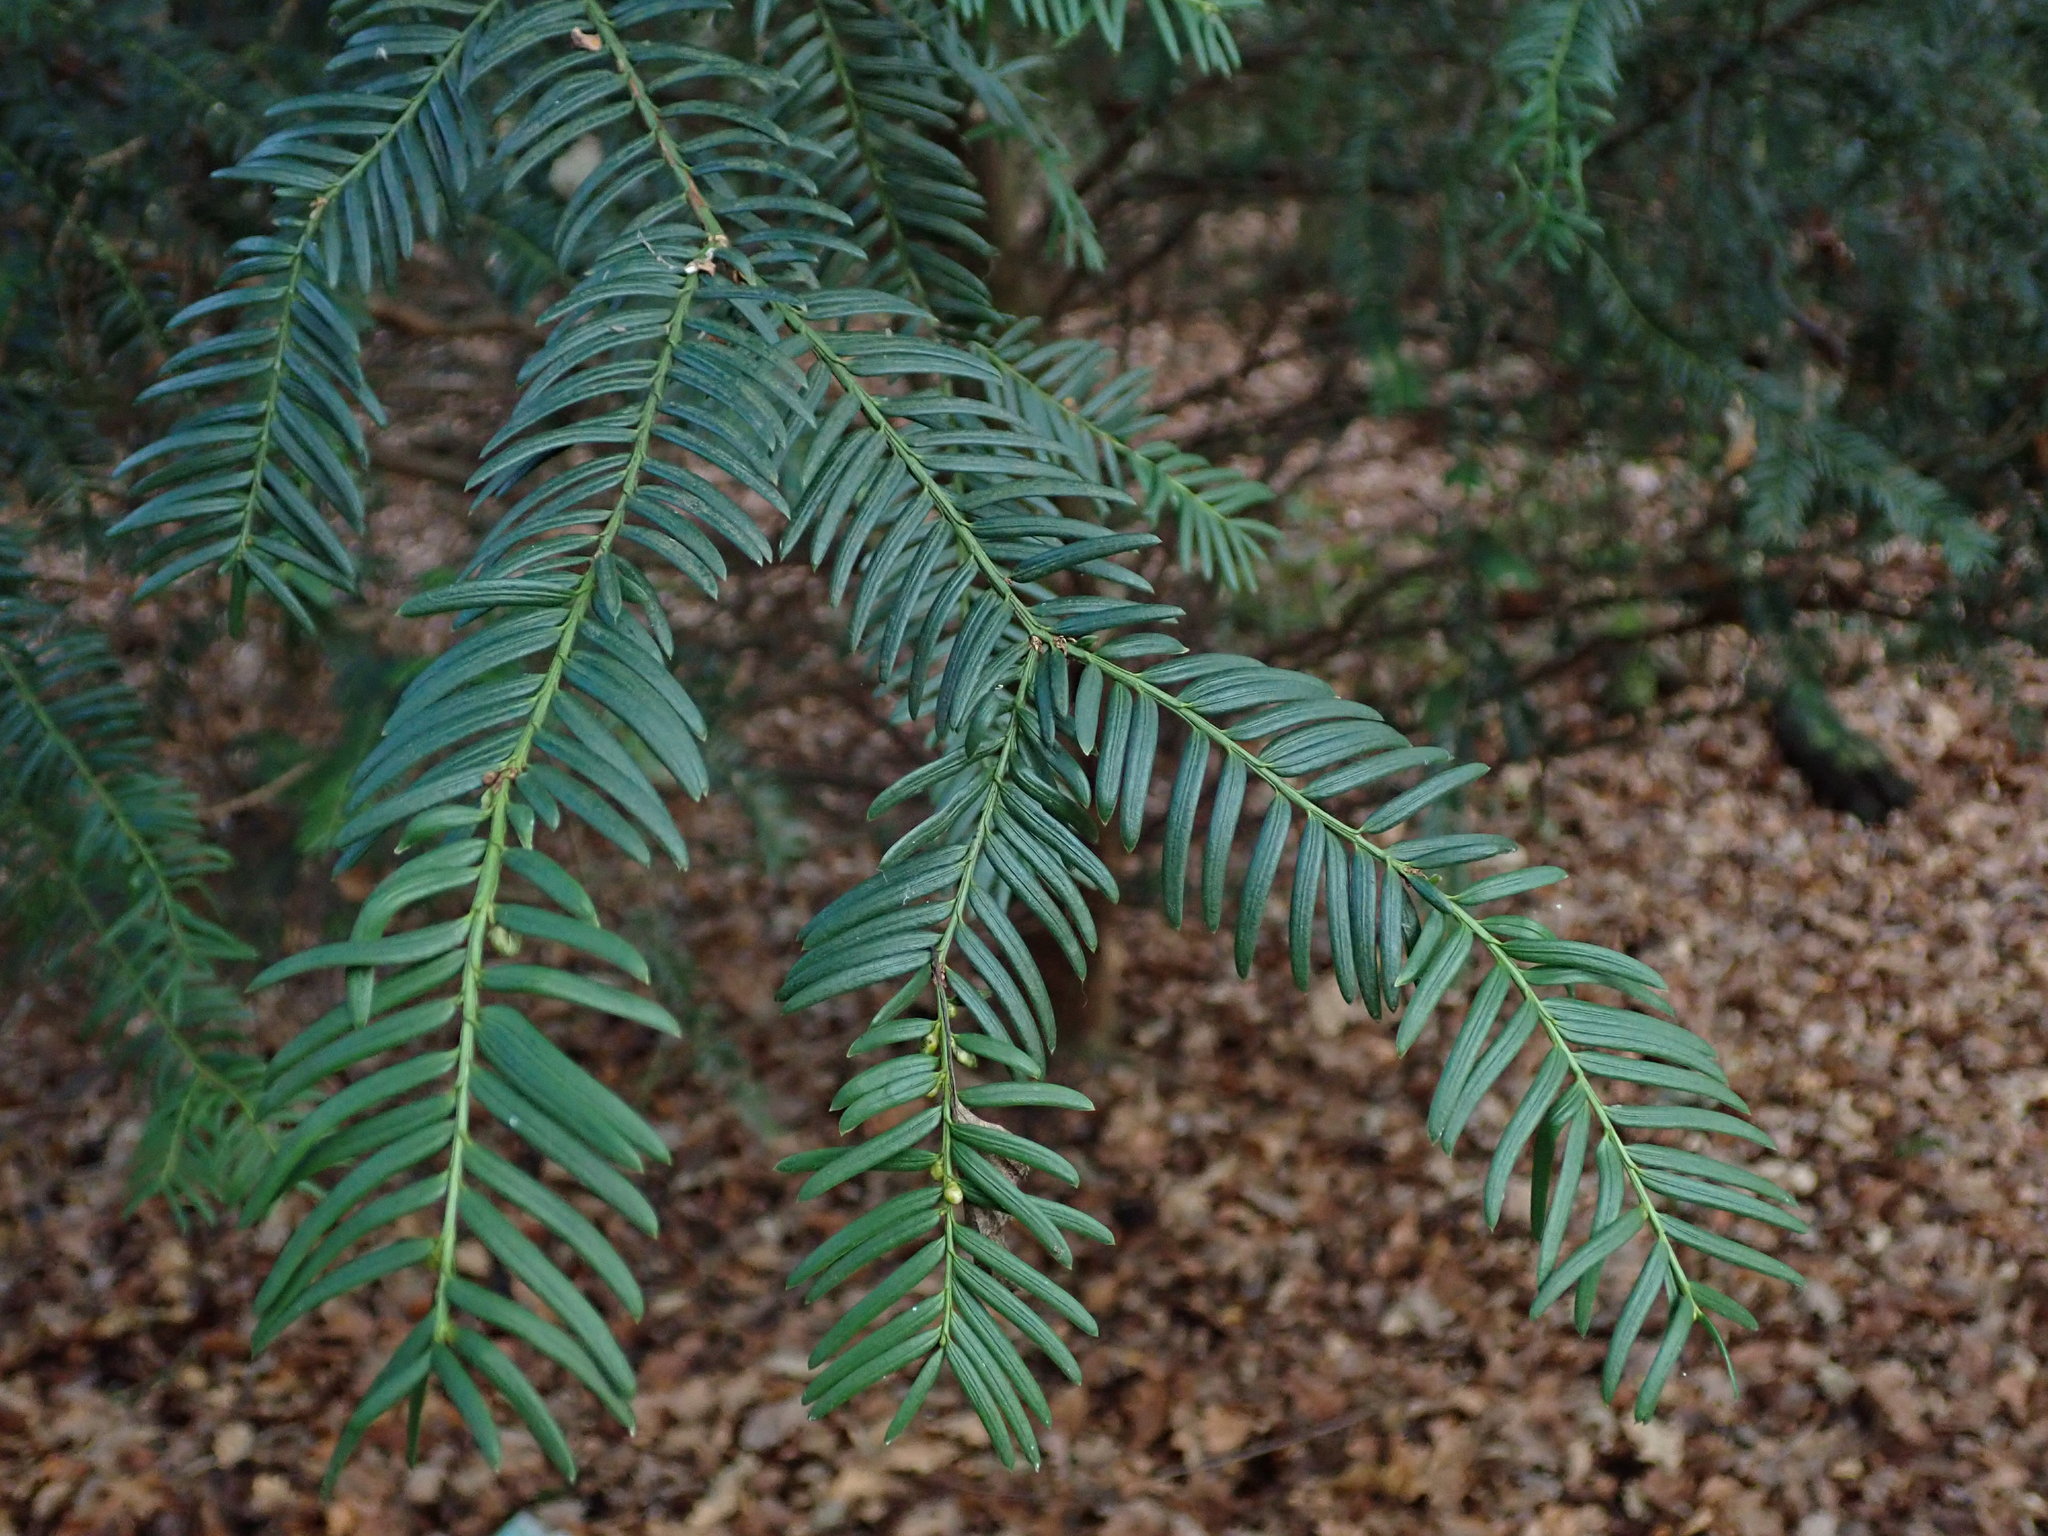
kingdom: Plantae
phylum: Tracheophyta
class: Pinopsida
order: Pinales
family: Taxaceae
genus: Taxus
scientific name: Taxus baccata
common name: Yew
